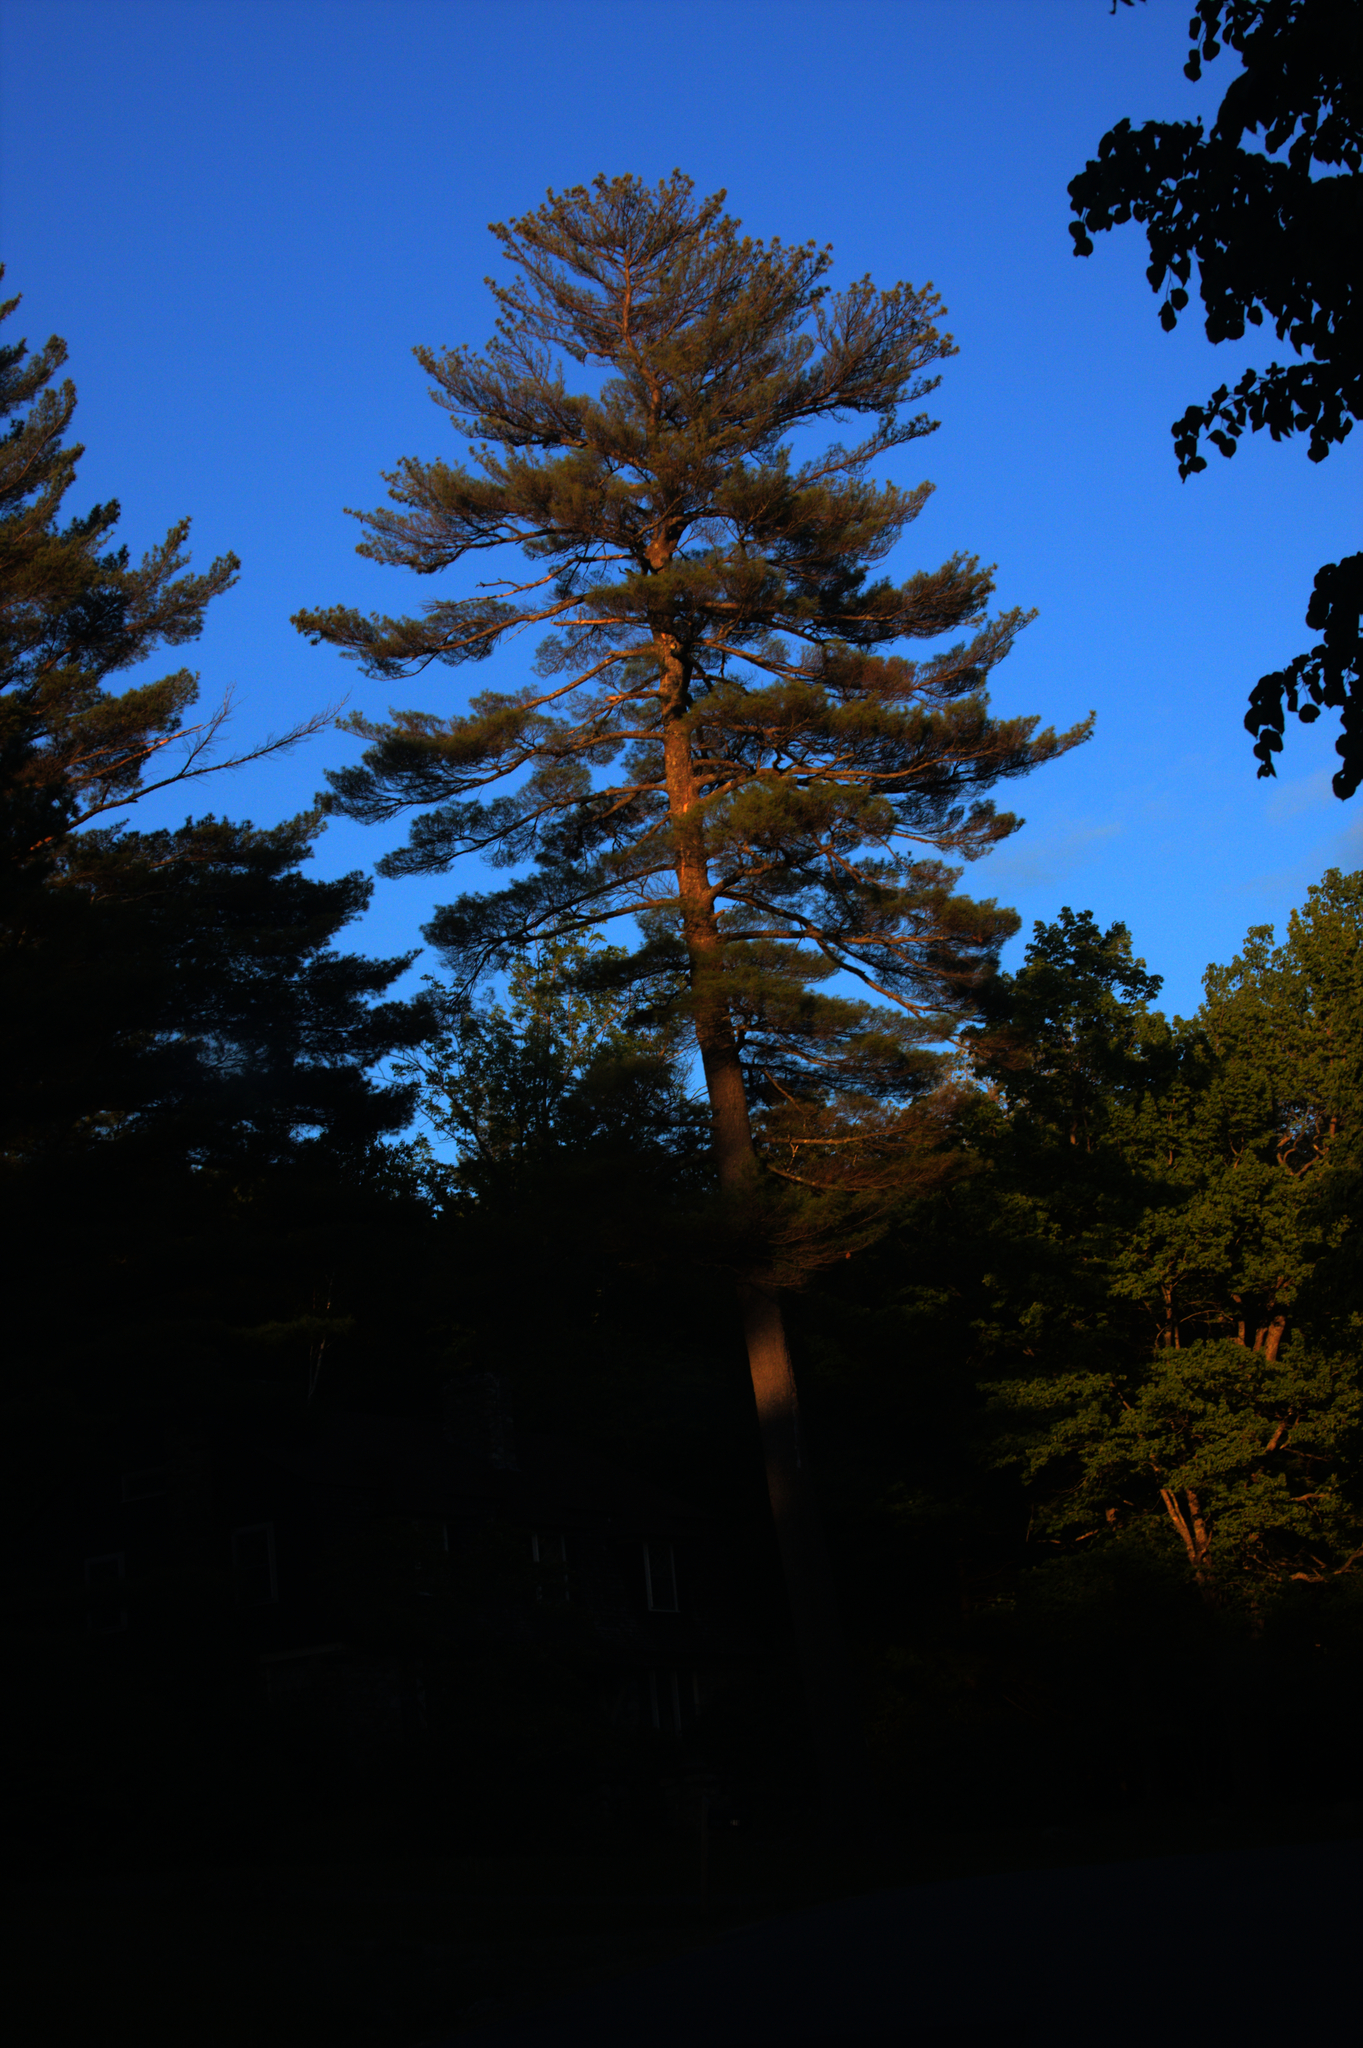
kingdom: Plantae
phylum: Tracheophyta
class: Pinopsida
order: Pinales
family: Pinaceae
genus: Pinus
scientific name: Pinus strobus
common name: Weymouth pine
